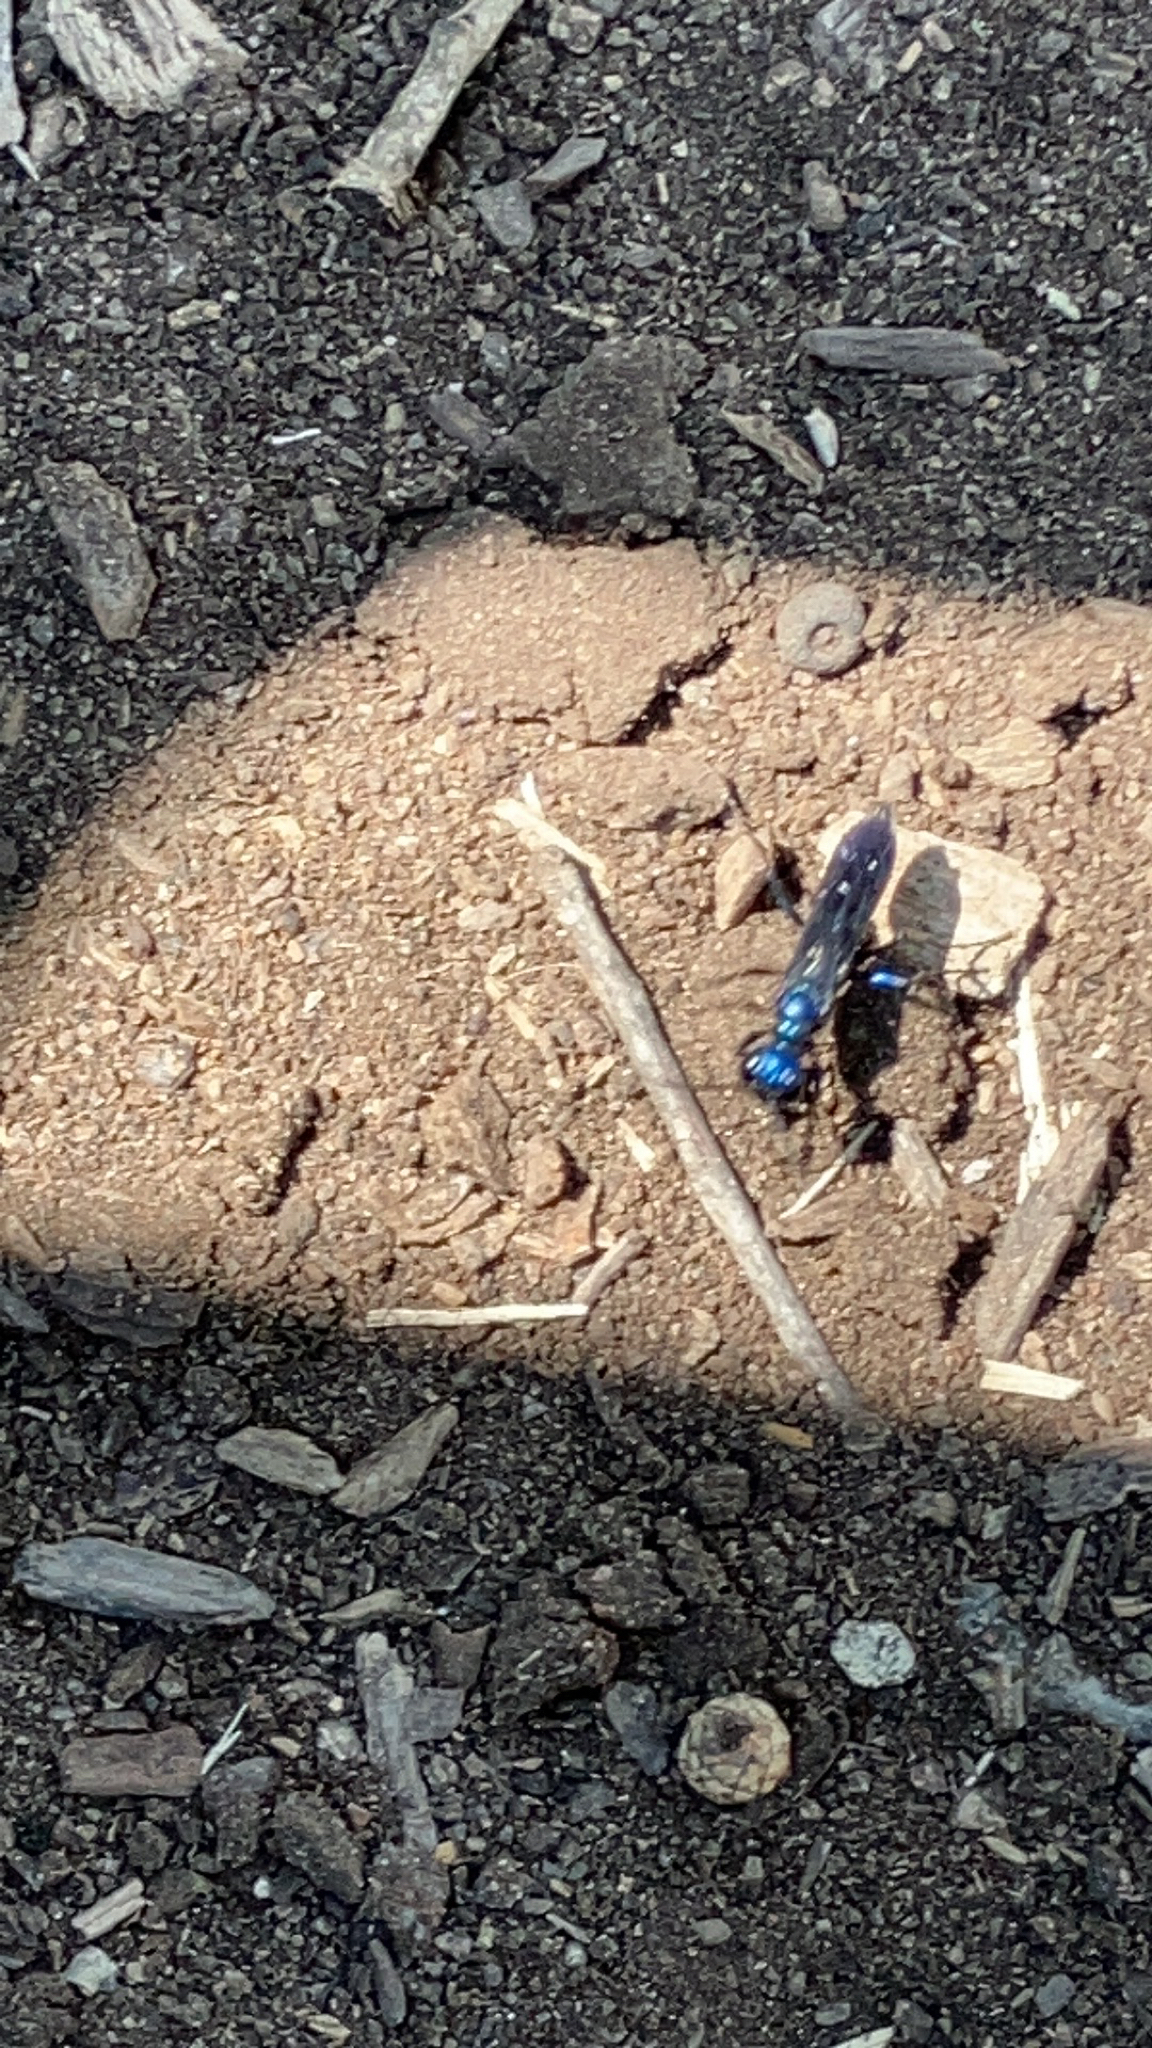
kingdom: Animalia
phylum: Arthropoda
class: Insecta
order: Hymenoptera
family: Sphecidae
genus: Chlorion
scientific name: Chlorion aerarium
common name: Steel-blue cricket hunter
